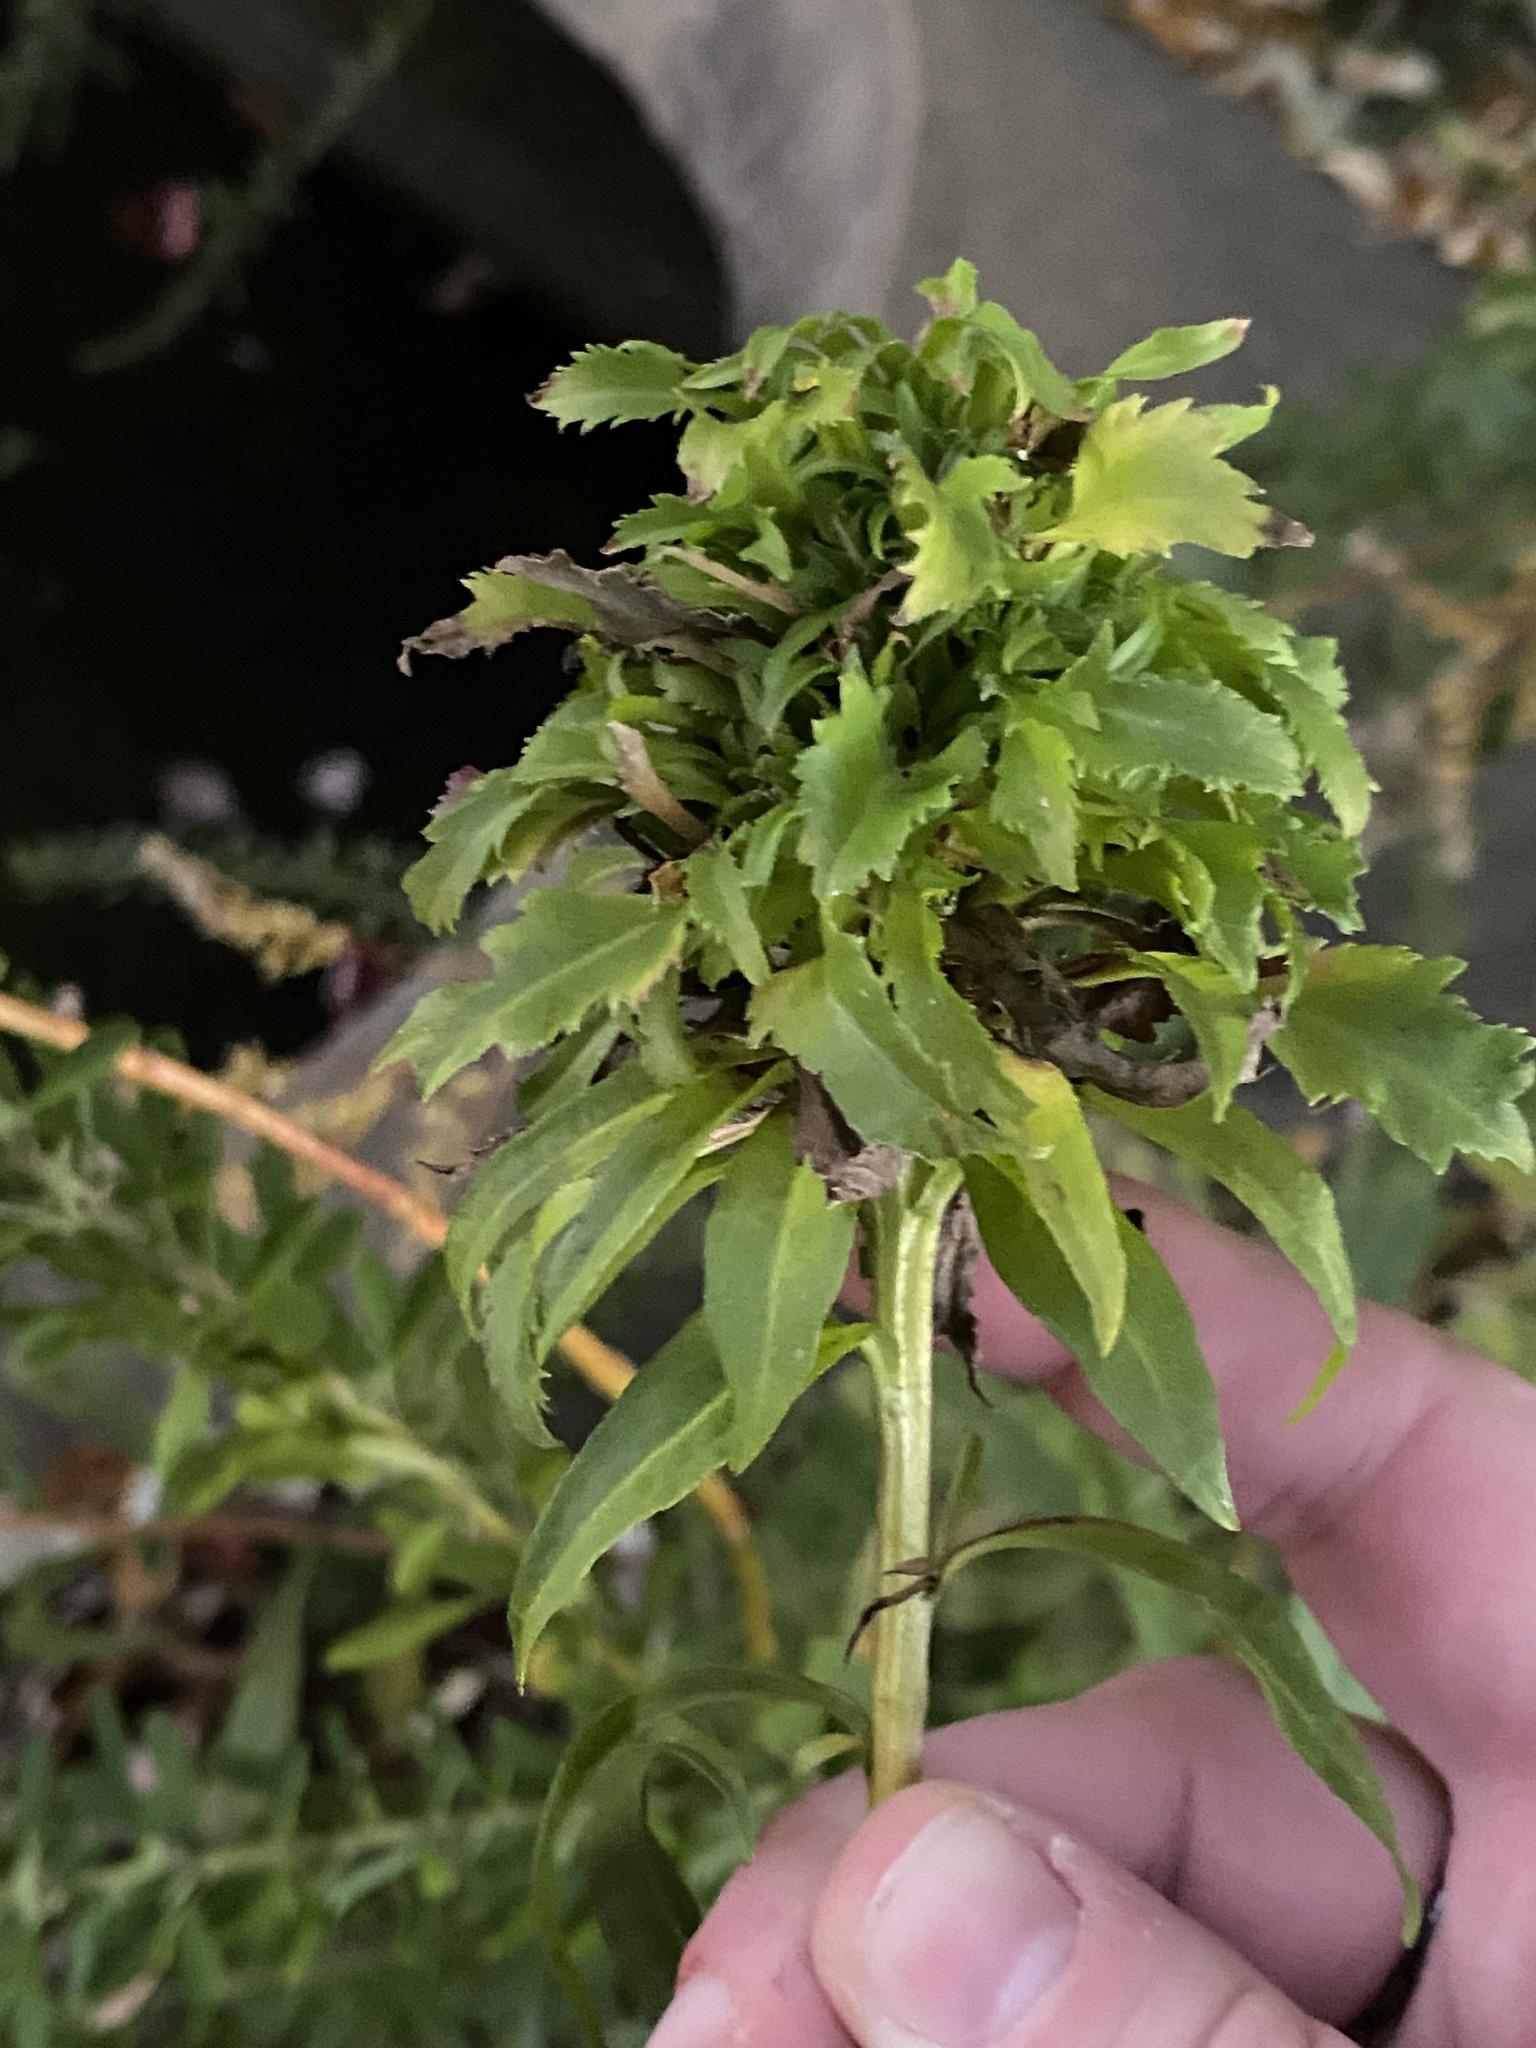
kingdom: Animalia
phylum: Arthropoda
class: Insecta
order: Diptera
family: Cecidomyiidae
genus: Asphondylia
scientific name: Asphondylia monacha
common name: Nun midge
